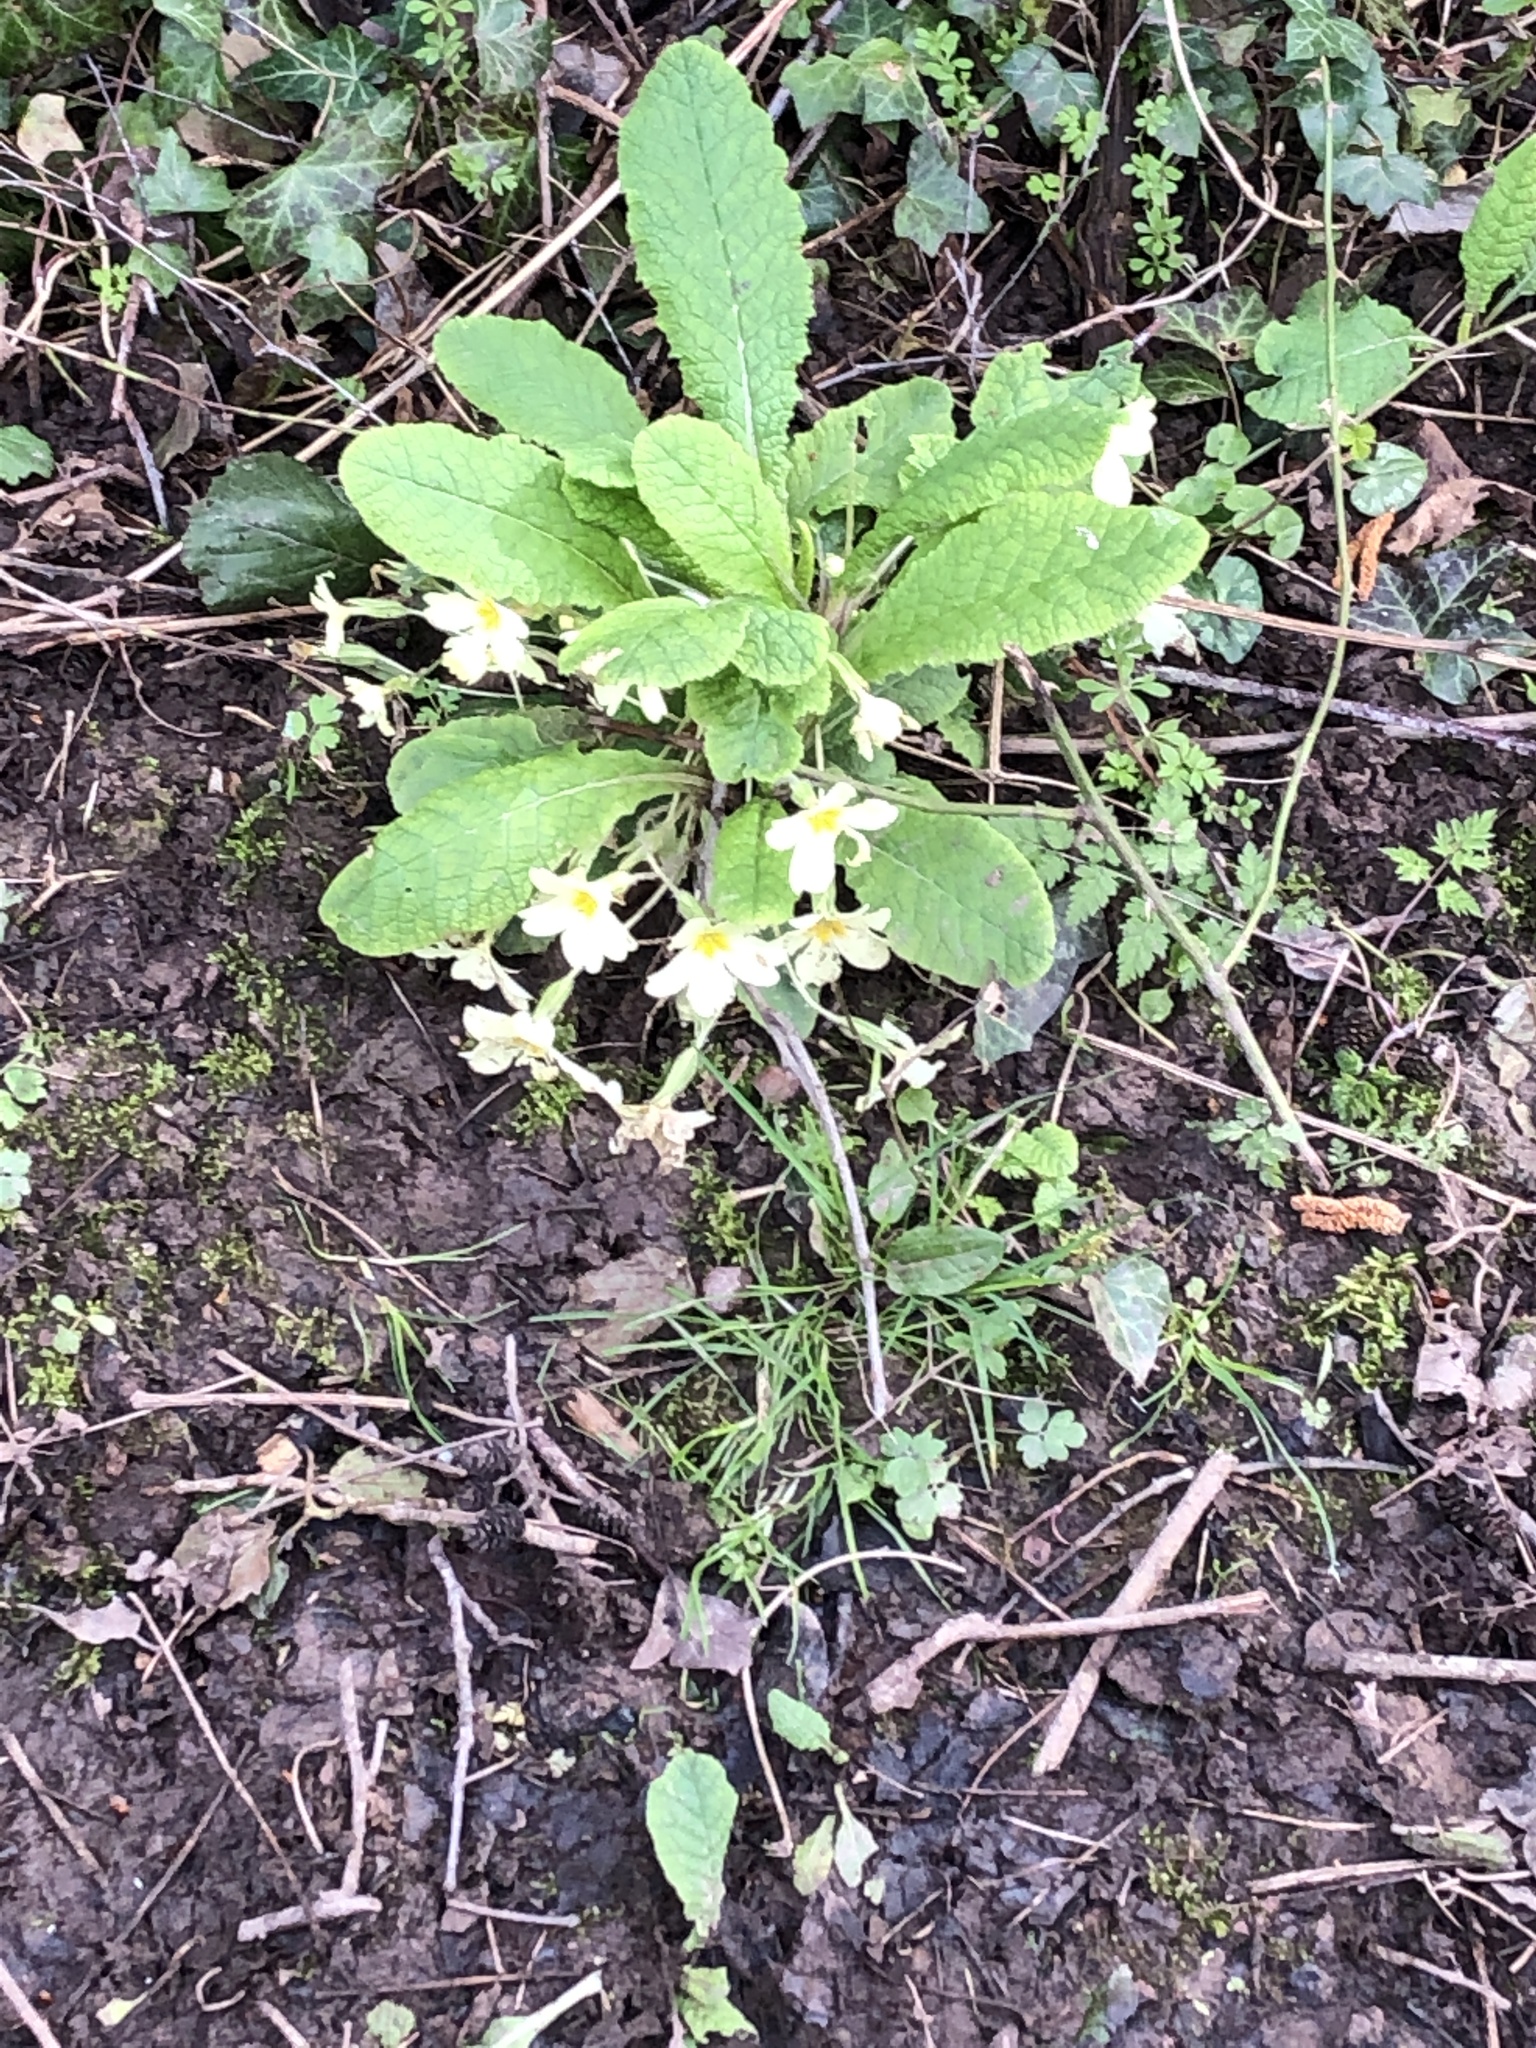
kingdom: Plantae
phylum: Tracheophyta
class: Magnoliopsida
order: Ericales
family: Primulaceae
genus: Primula
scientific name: Primula vulgaris
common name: Primrose
